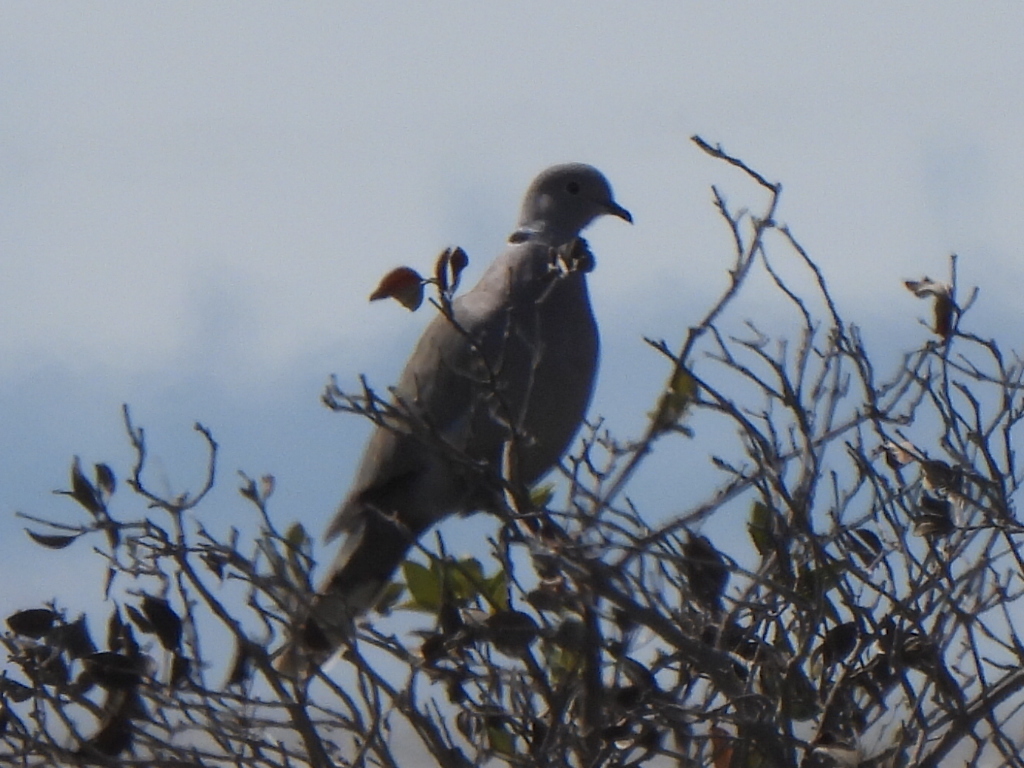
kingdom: Animalia
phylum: Chordata
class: Aves
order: Columbiformes
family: Columbidae
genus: Streptopelia
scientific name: Streptopelia decaocto
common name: Eurasian collared dove
